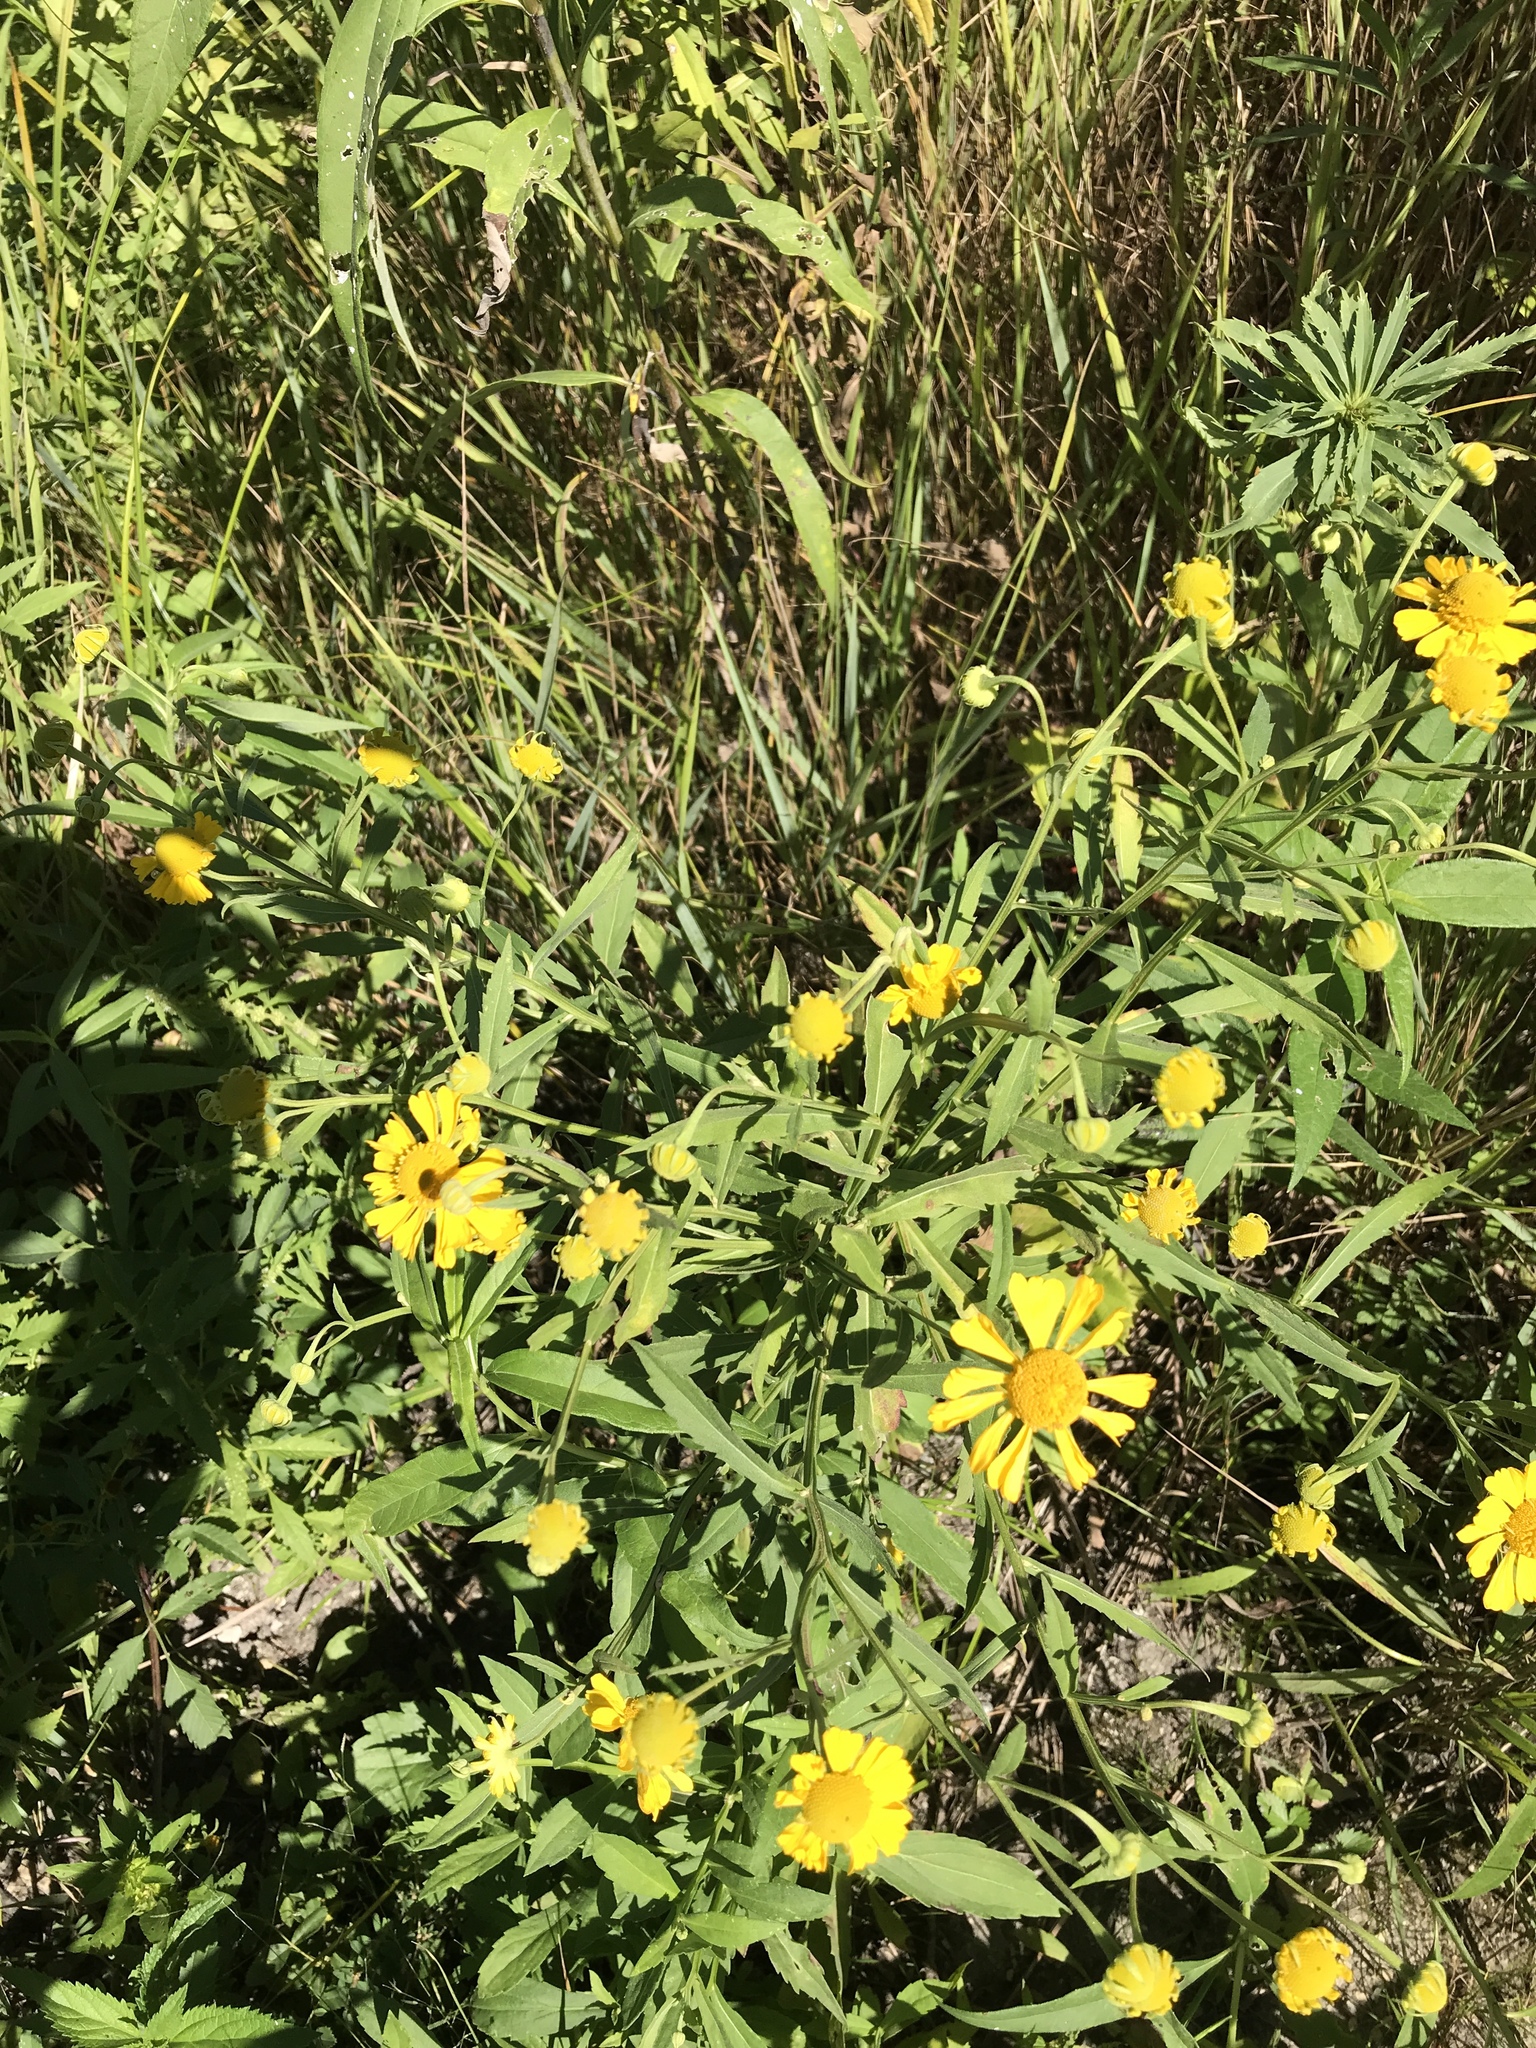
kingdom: Plantae
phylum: Tracheophyta
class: Magnoliopsida
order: Asterales
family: Asteraceae
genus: Helenium
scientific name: Helenium autumnale
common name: Sneezeweed
